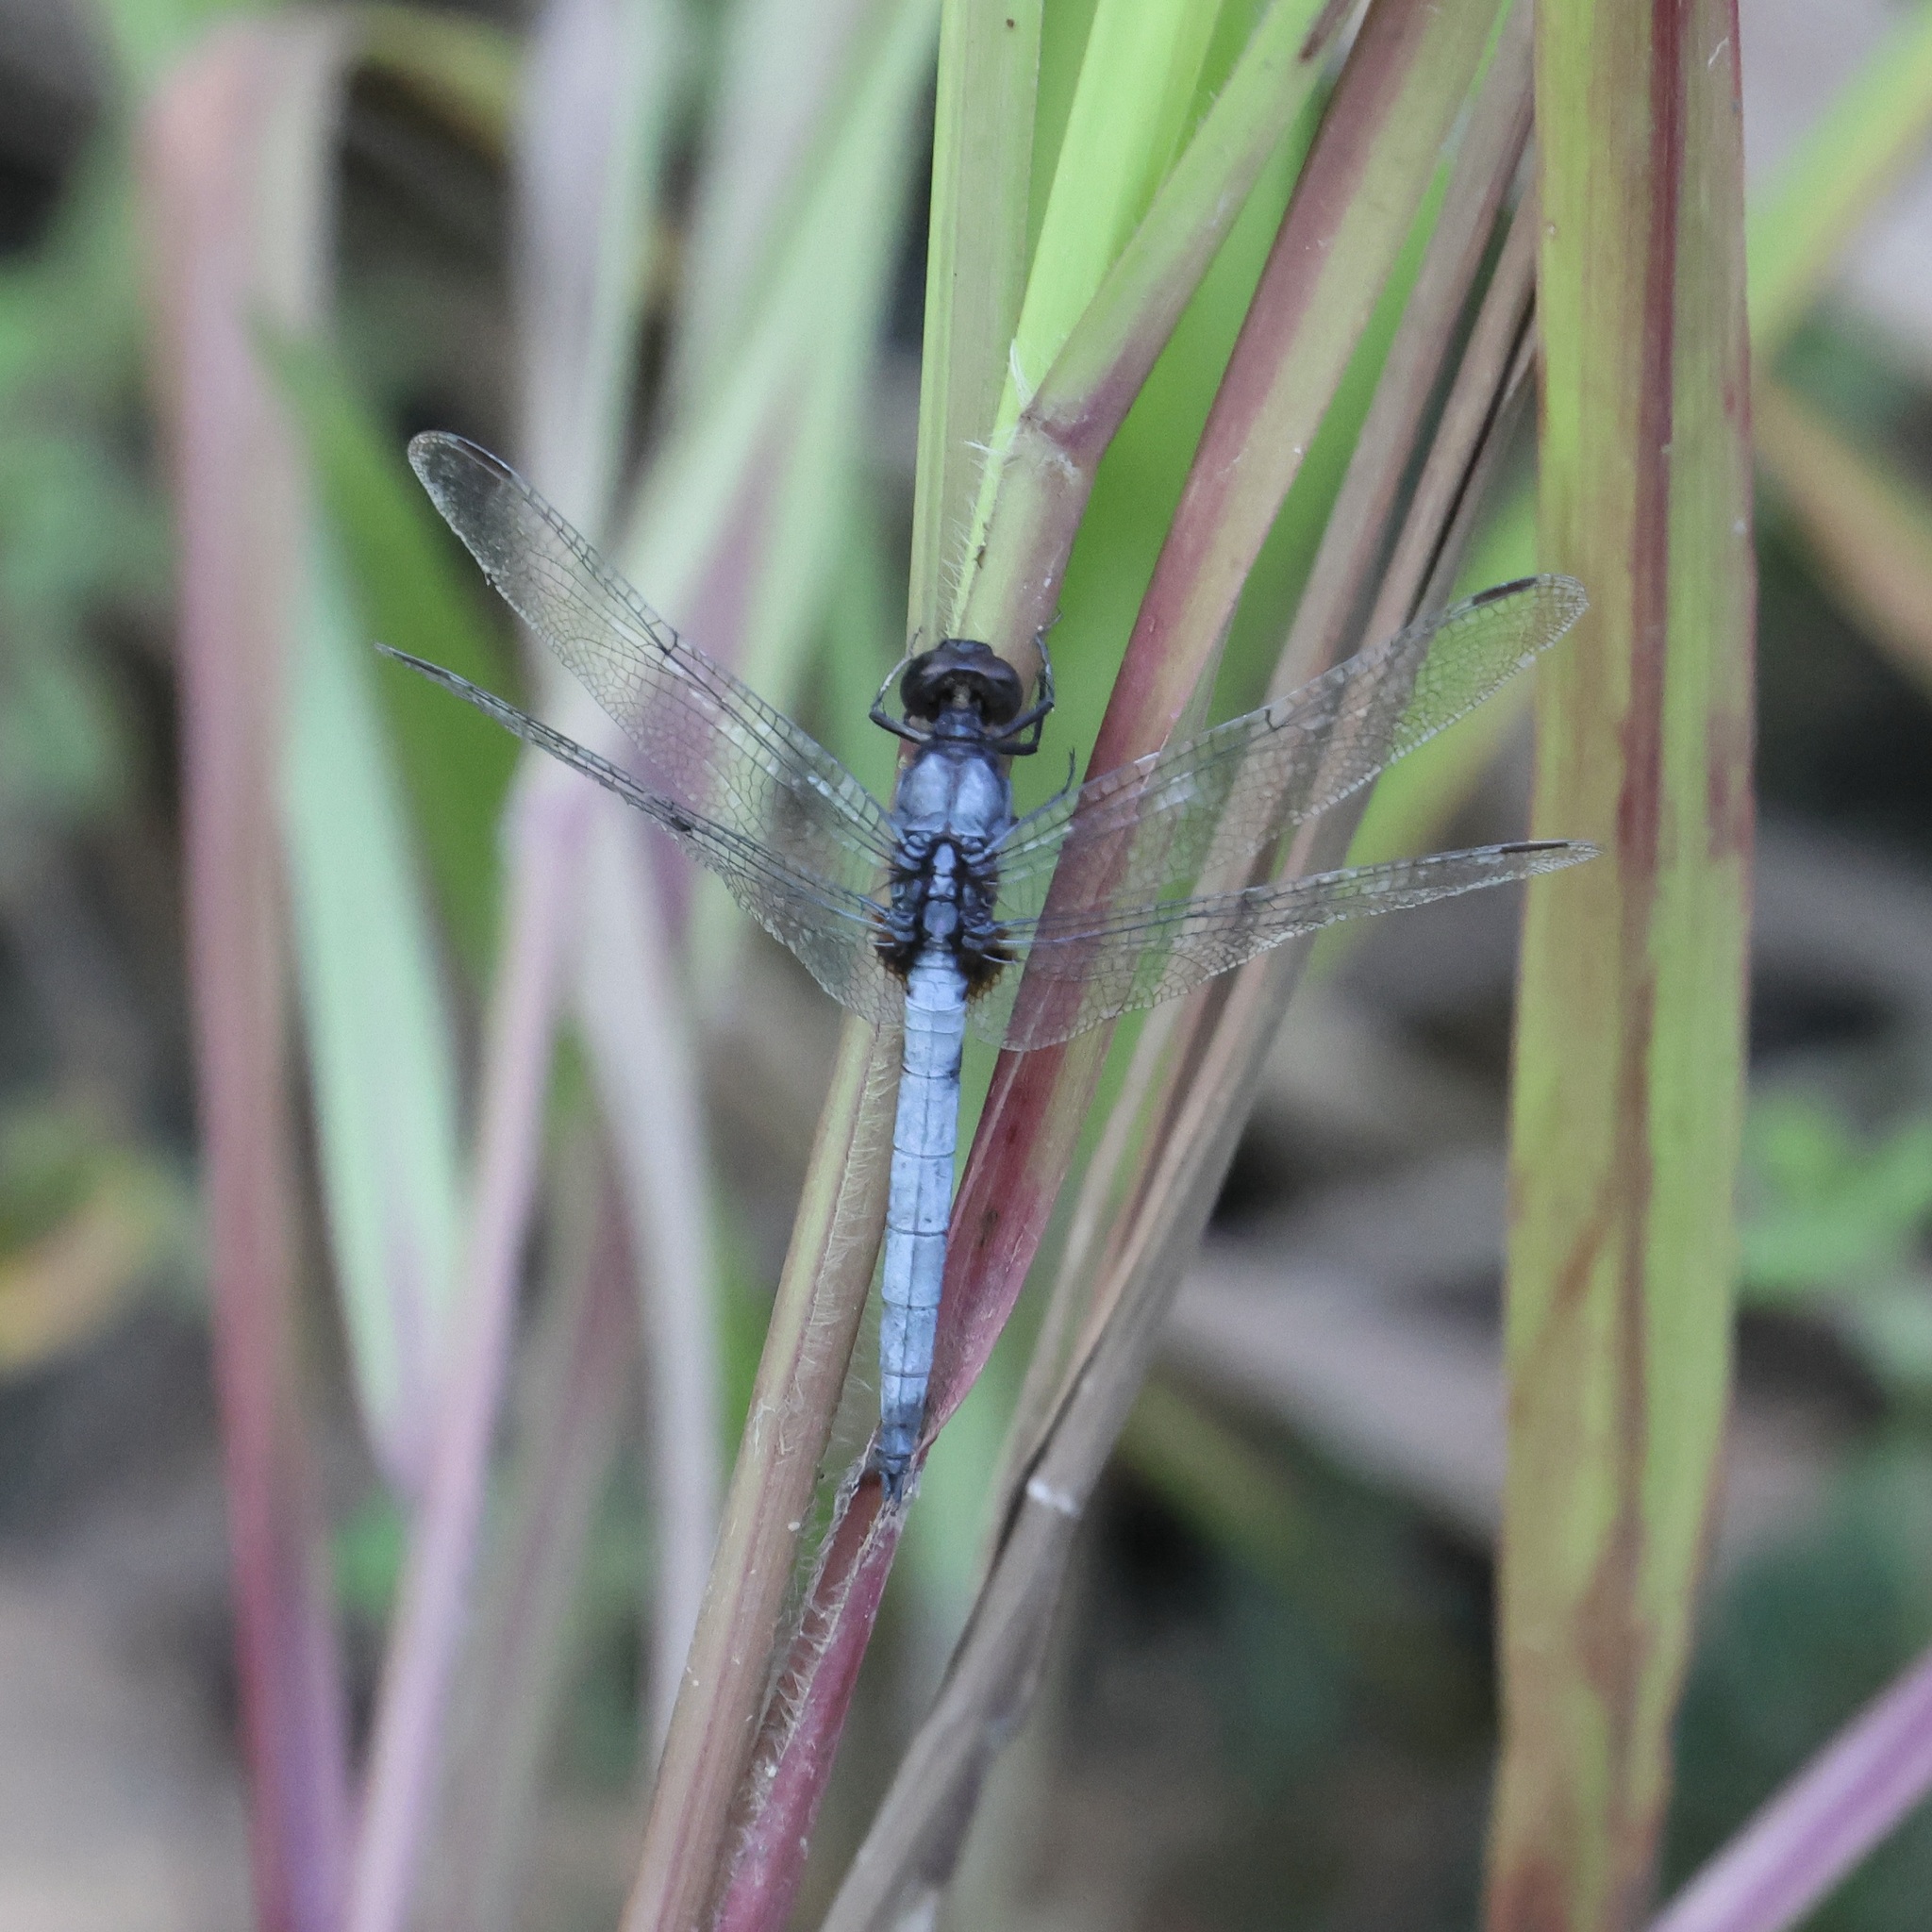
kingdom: Animalia
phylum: Arthropoda
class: Insecta
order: Odonata
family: Libellulidae
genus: Orthetrum
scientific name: Orthetrum glaucum
